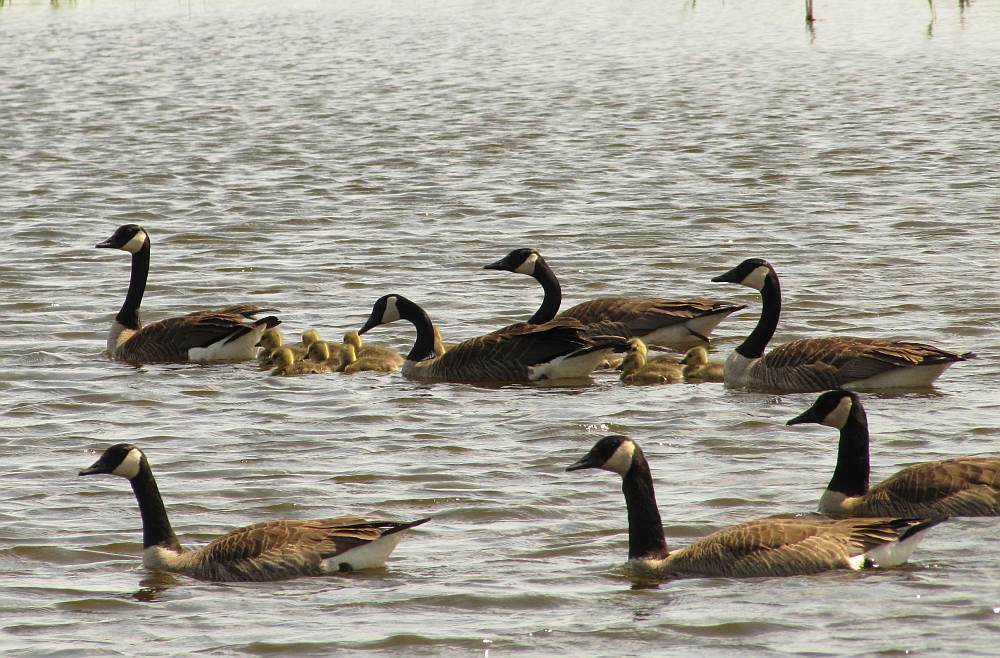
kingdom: Animalia
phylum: Chordata
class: Aves
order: Anseriformes
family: Anatidae
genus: Branta
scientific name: Branta canadensis
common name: Canada goose
